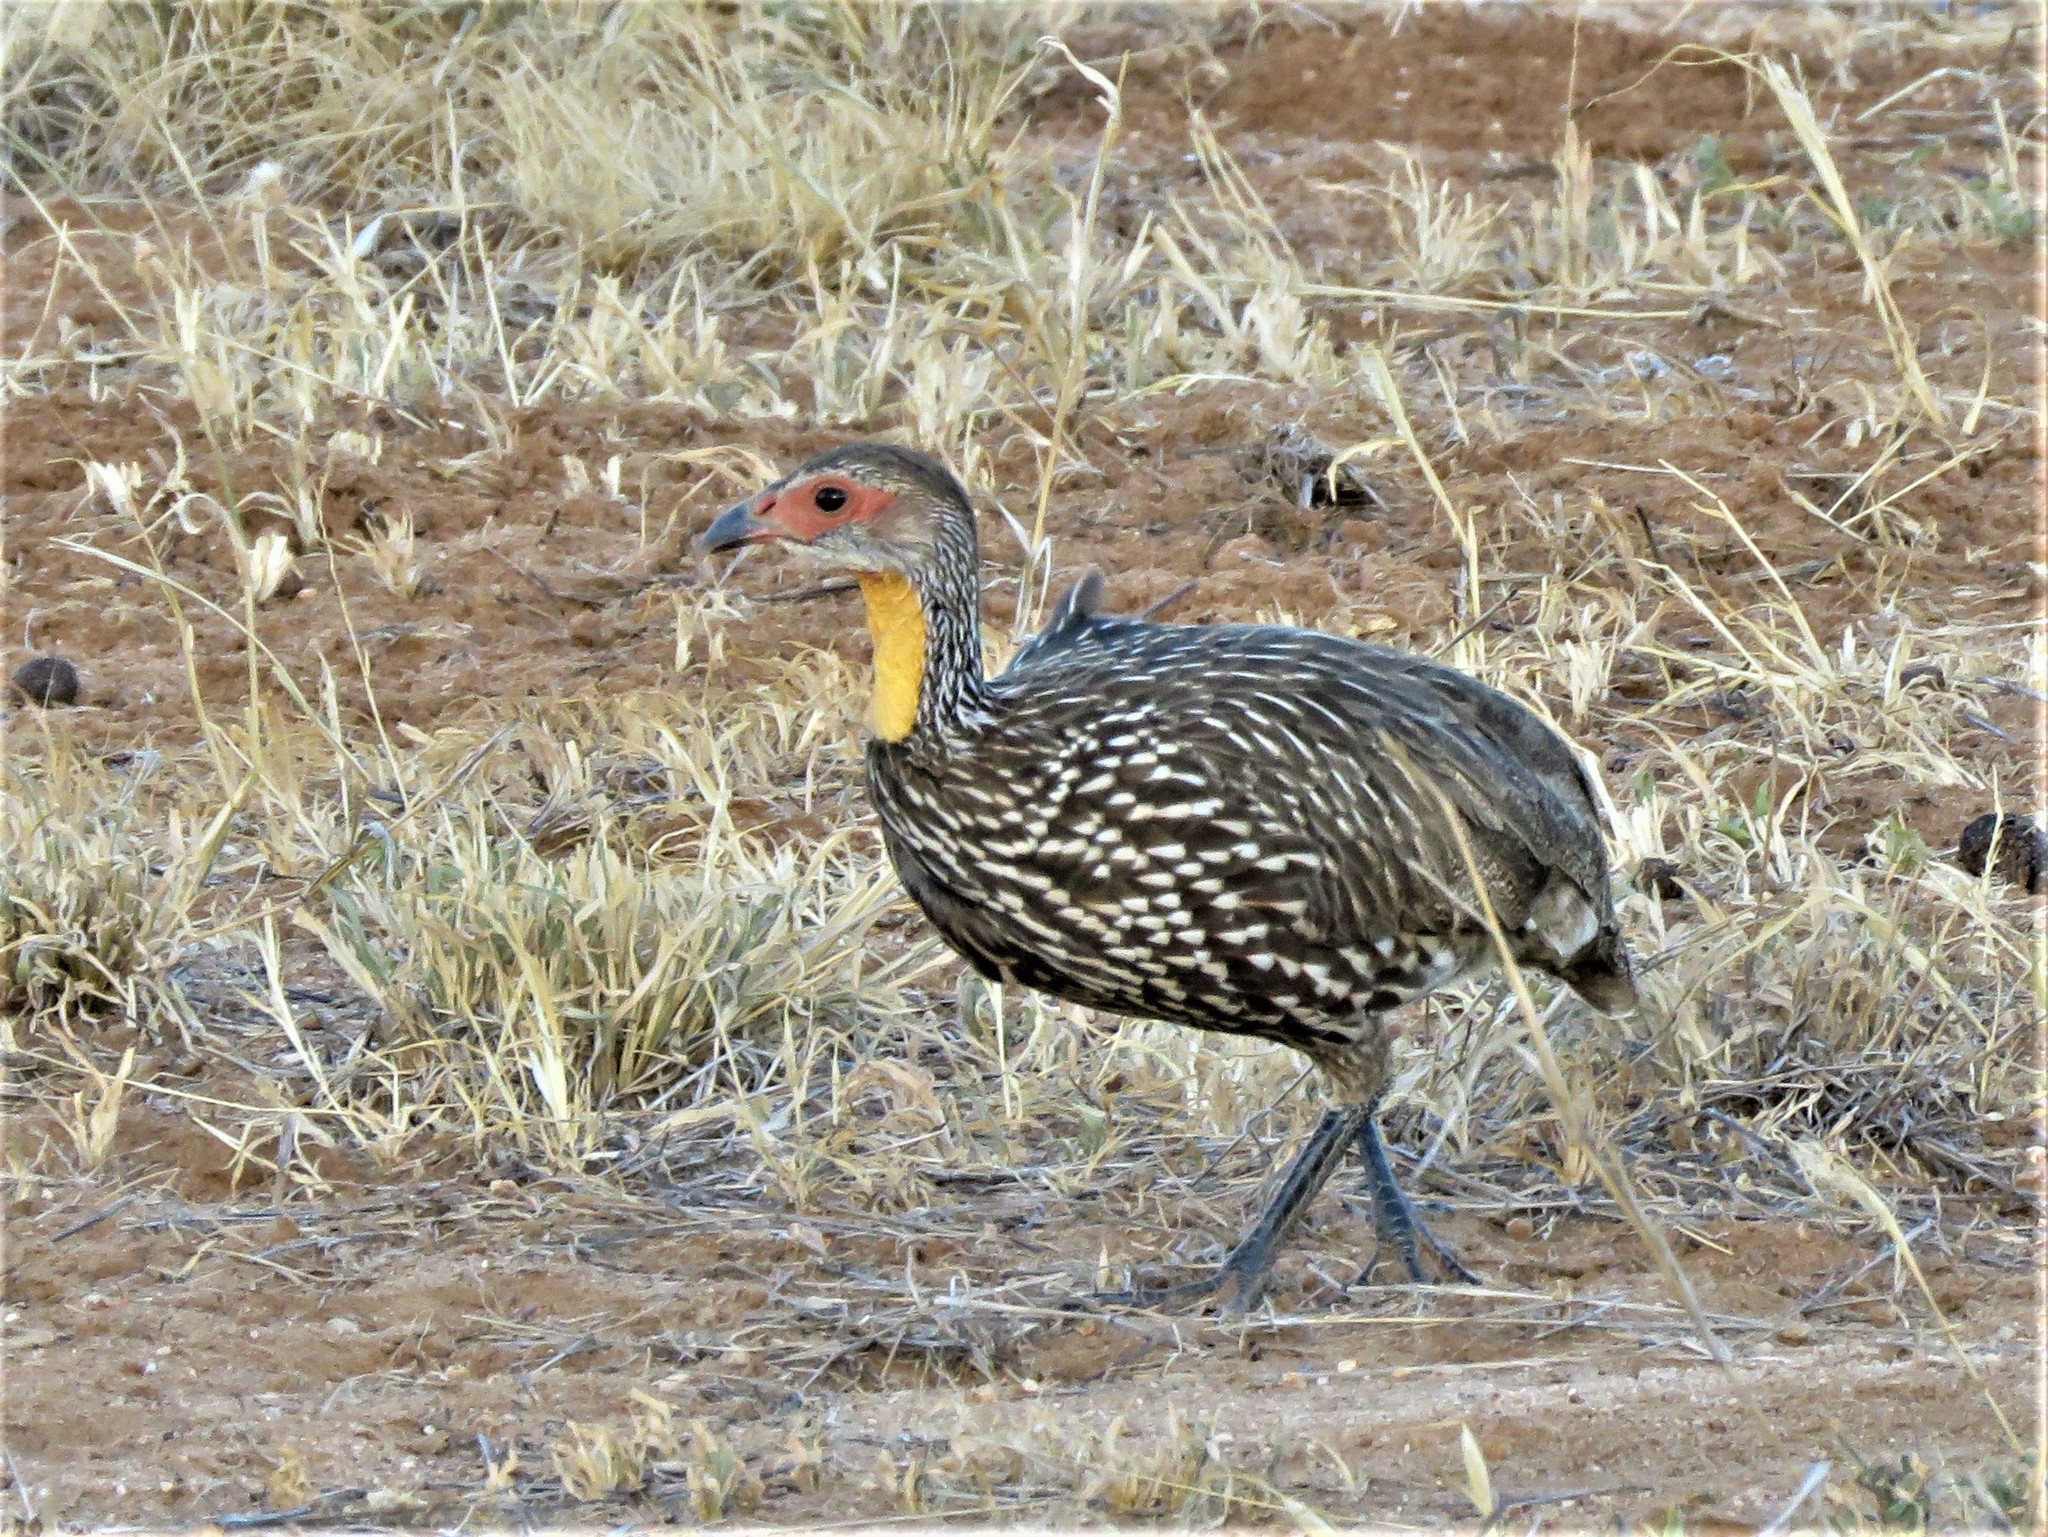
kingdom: Animalia
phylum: Chordata
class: Aves
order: Galliformes
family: Phasianidae
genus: Pternistis
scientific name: Pternistis leucoscepus
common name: Yellow-necked spurfowl
